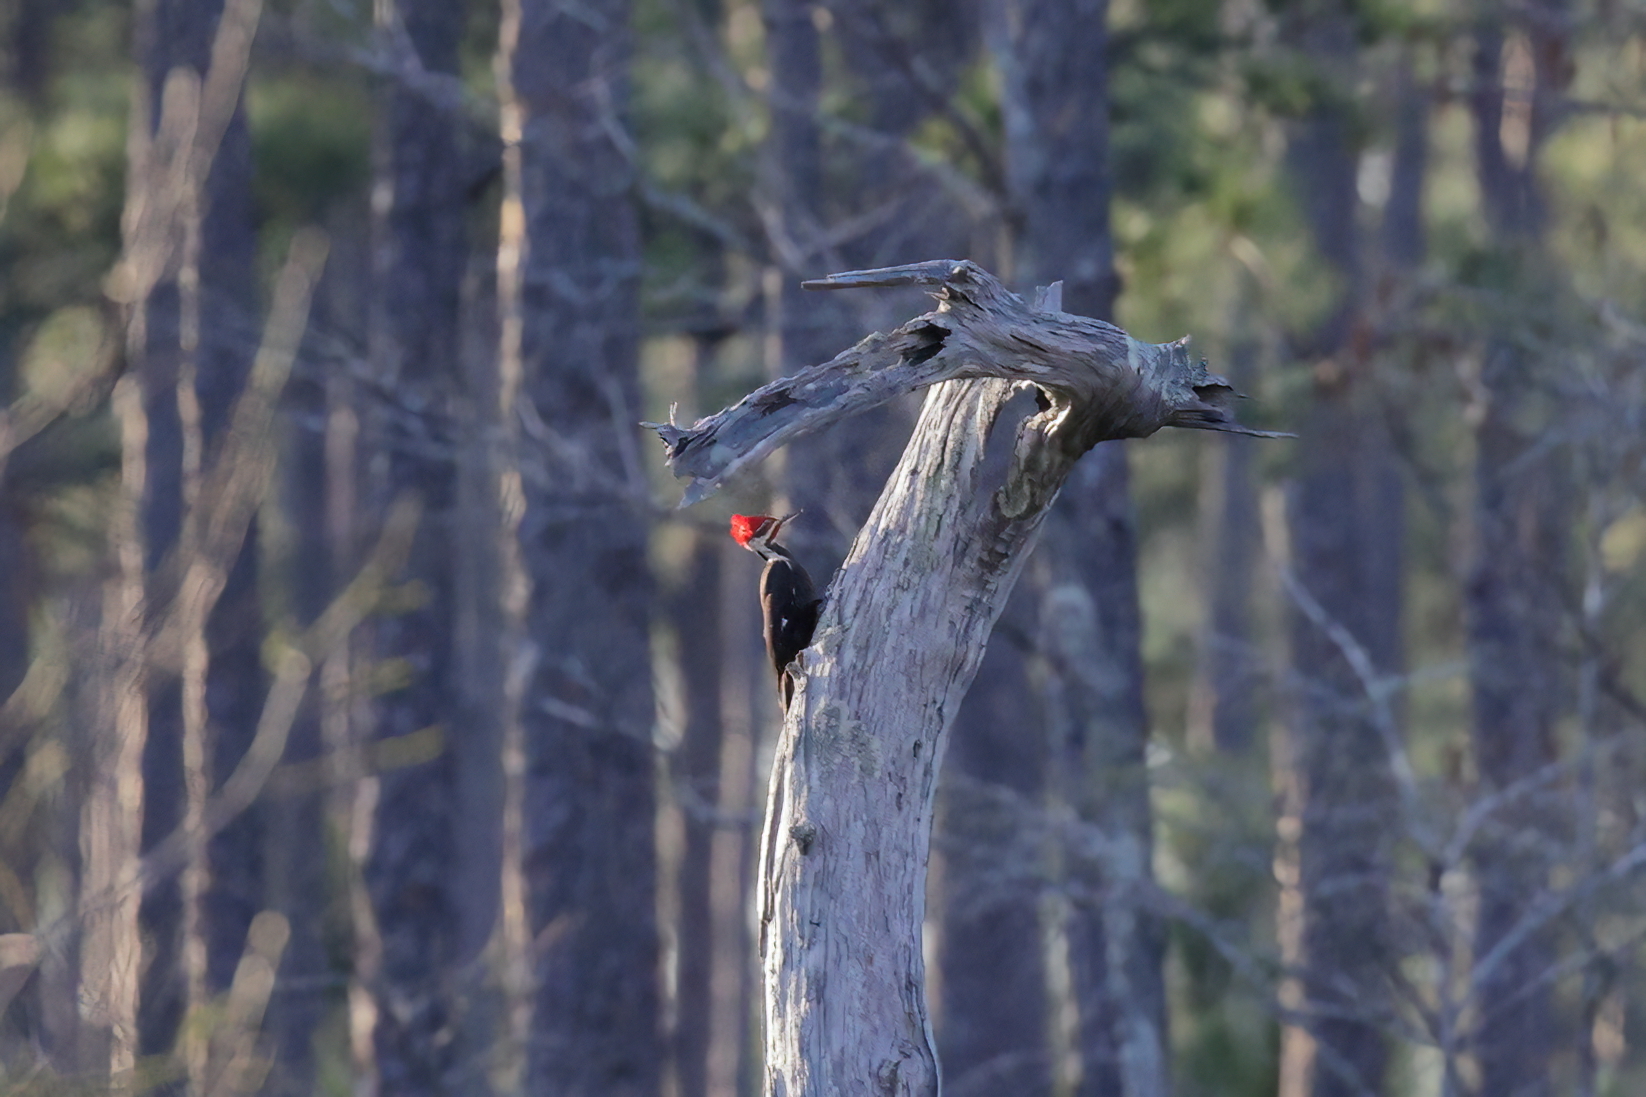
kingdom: Animalia
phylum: Chordata
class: Aves
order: Piciformes
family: Picidae
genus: Dryocopus
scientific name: Dryocopus pileatus
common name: Pileated woodpecker
